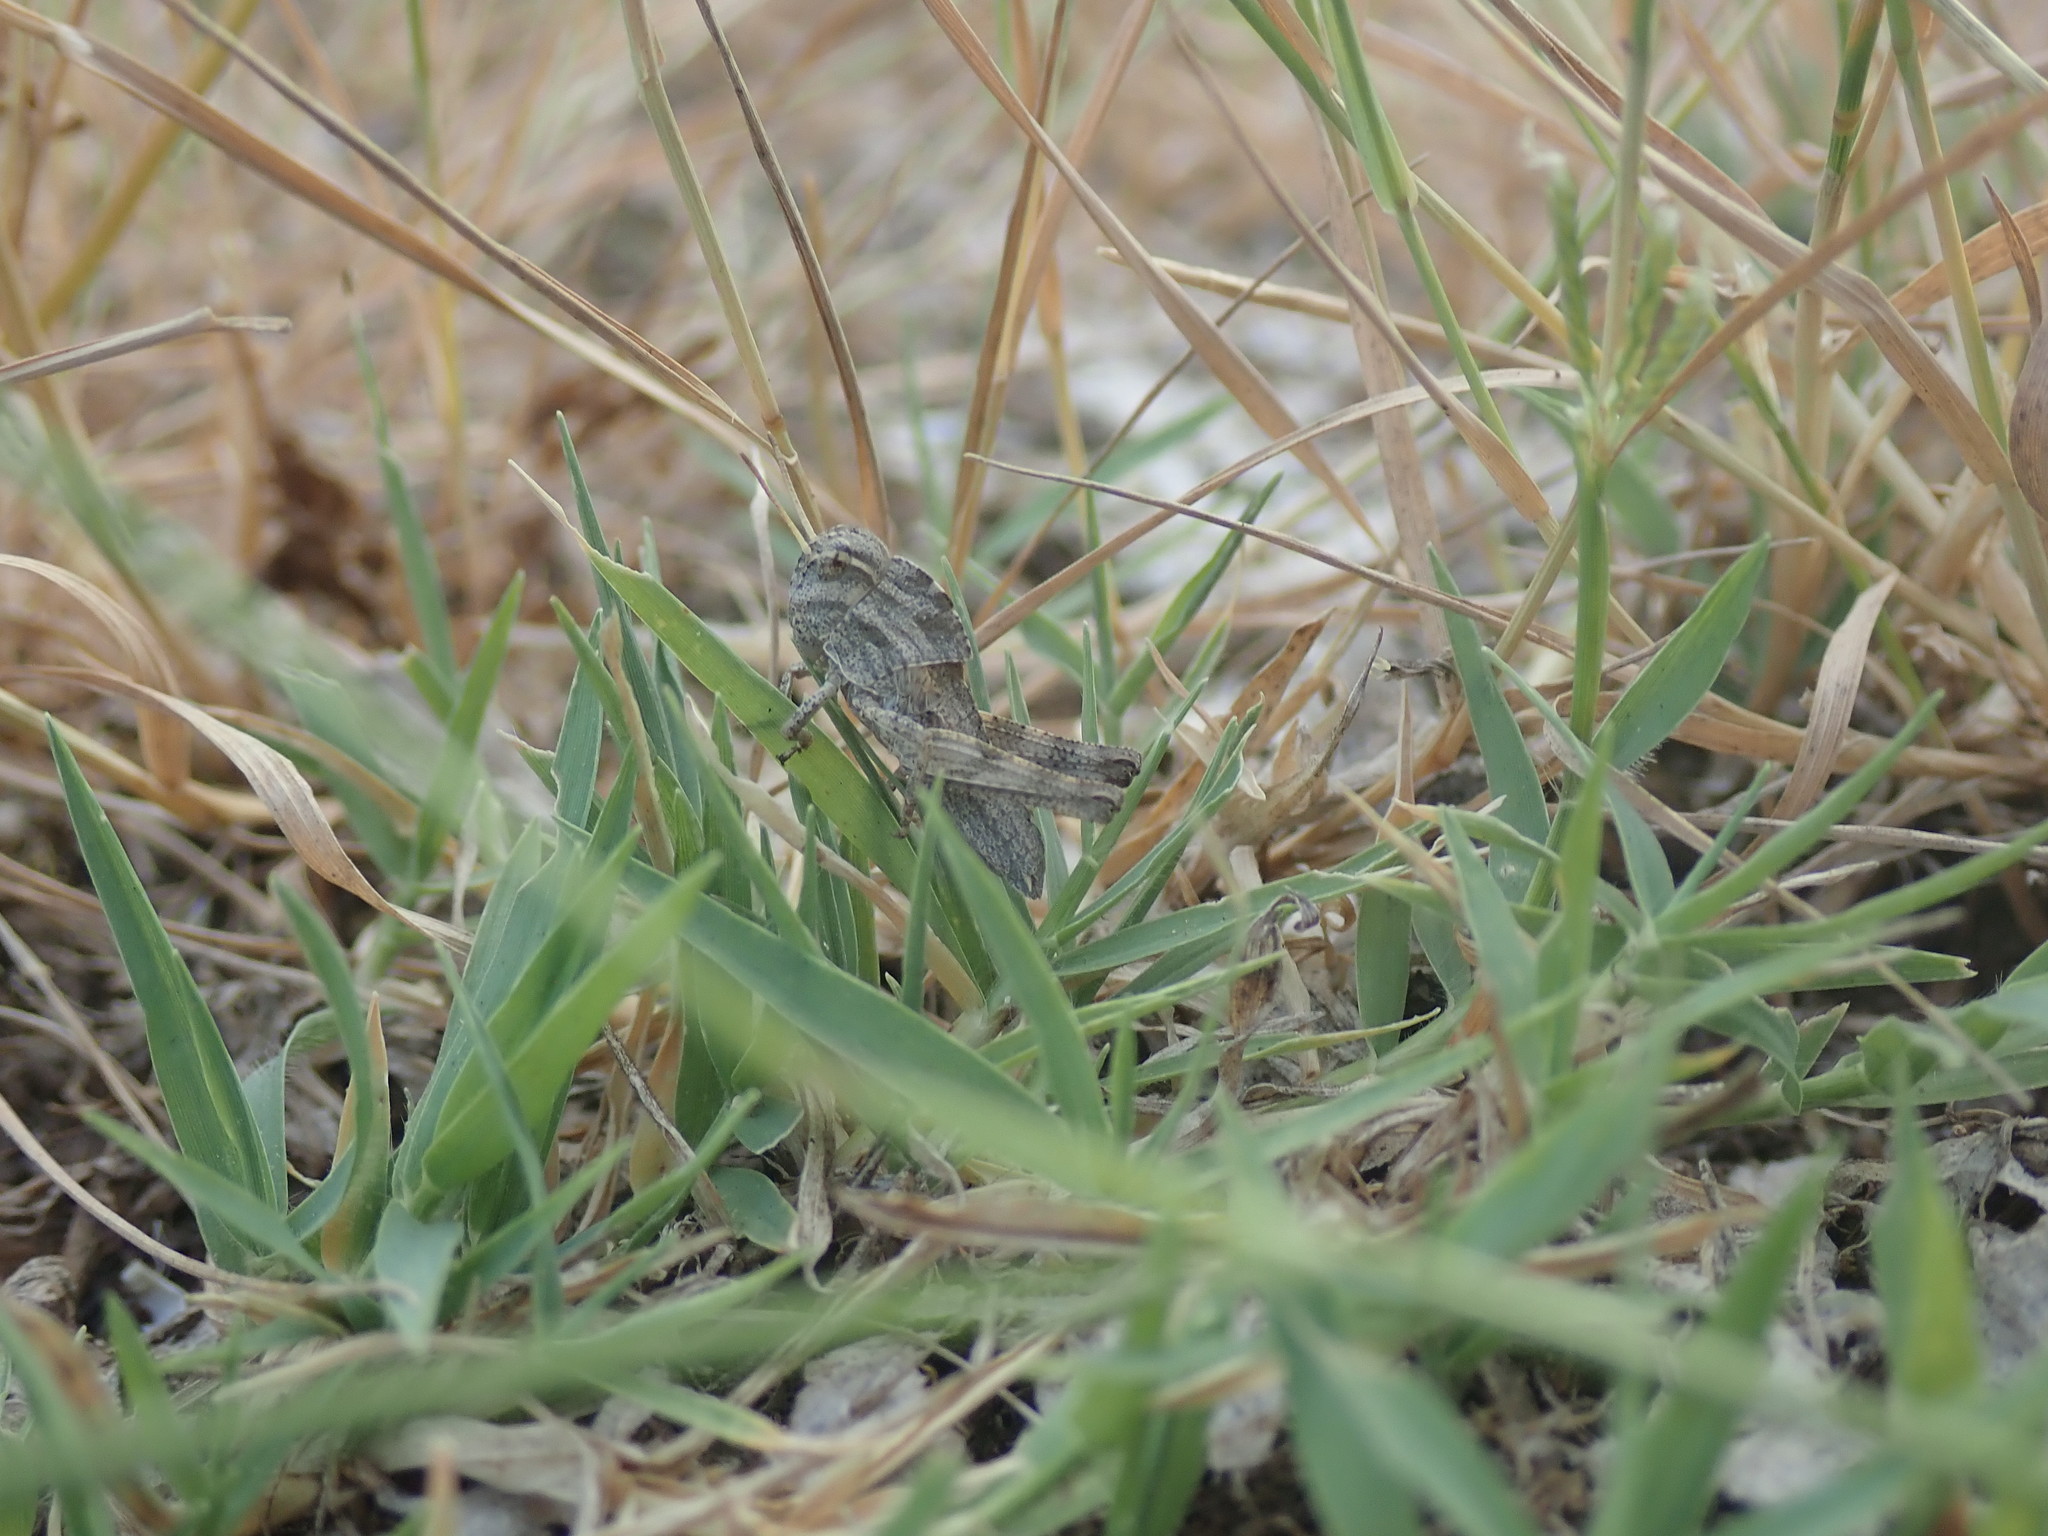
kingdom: Animalia
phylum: Arthropoda
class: Insecta
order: Orthoptera
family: Acrididae
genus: Locusta
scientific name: Locusta migratoria
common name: Migratory locust
